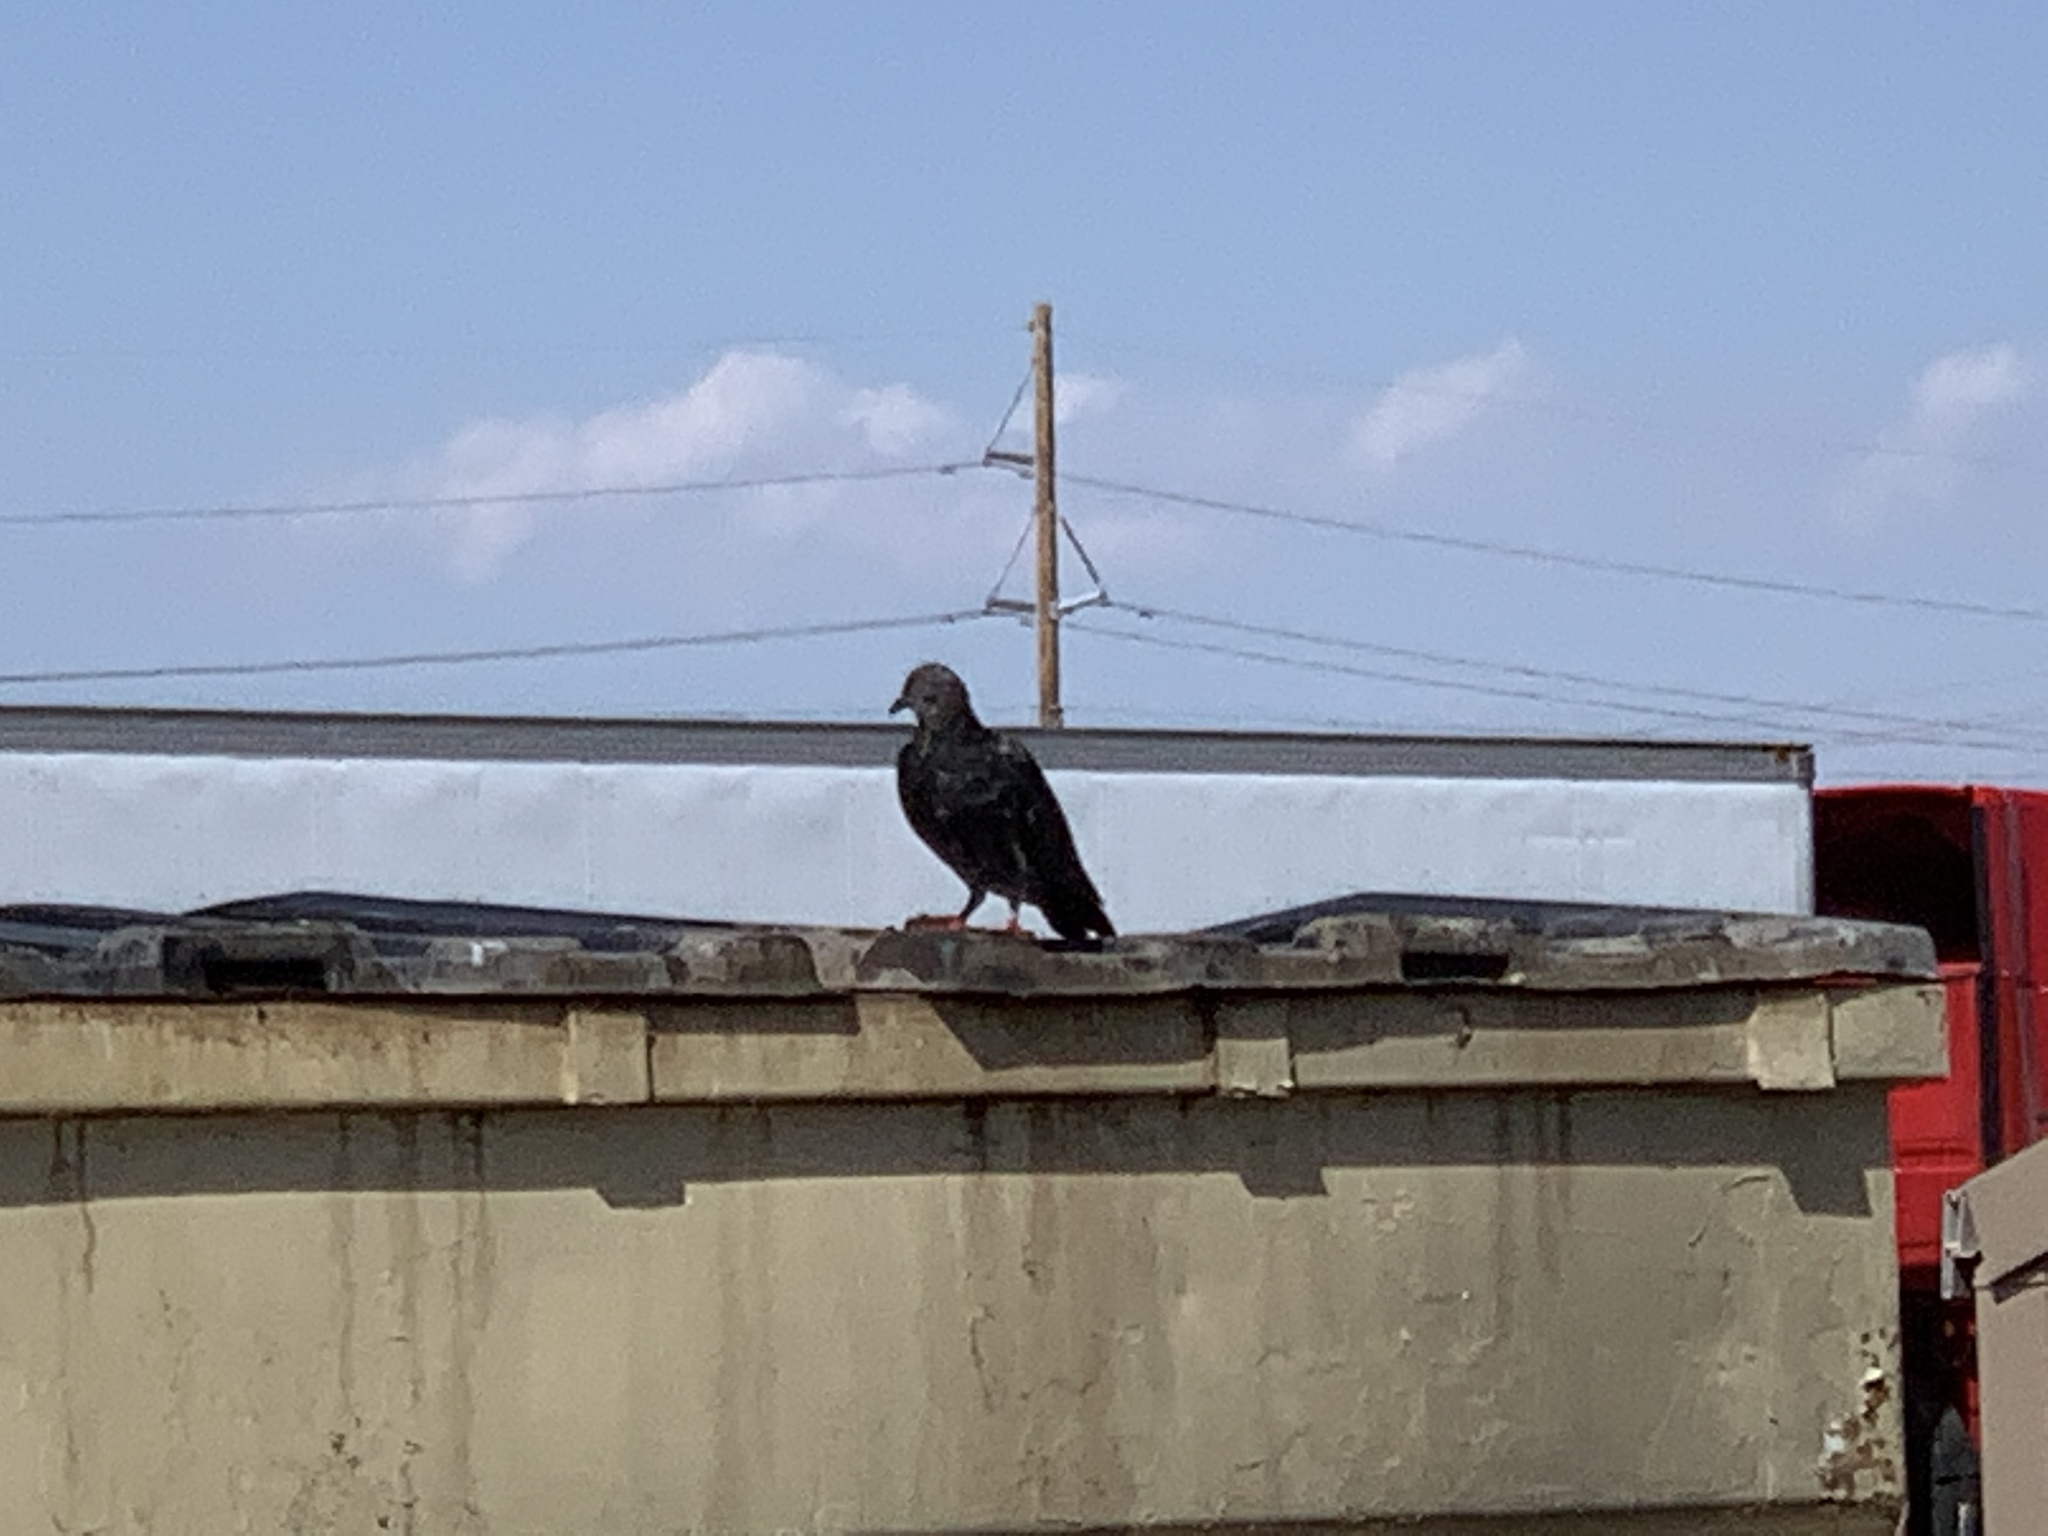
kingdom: Animalia
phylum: Chordata
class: Aves
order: Columbiformes
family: Columbidae
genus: Columba
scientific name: Columba livia
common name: Rock pigeon
